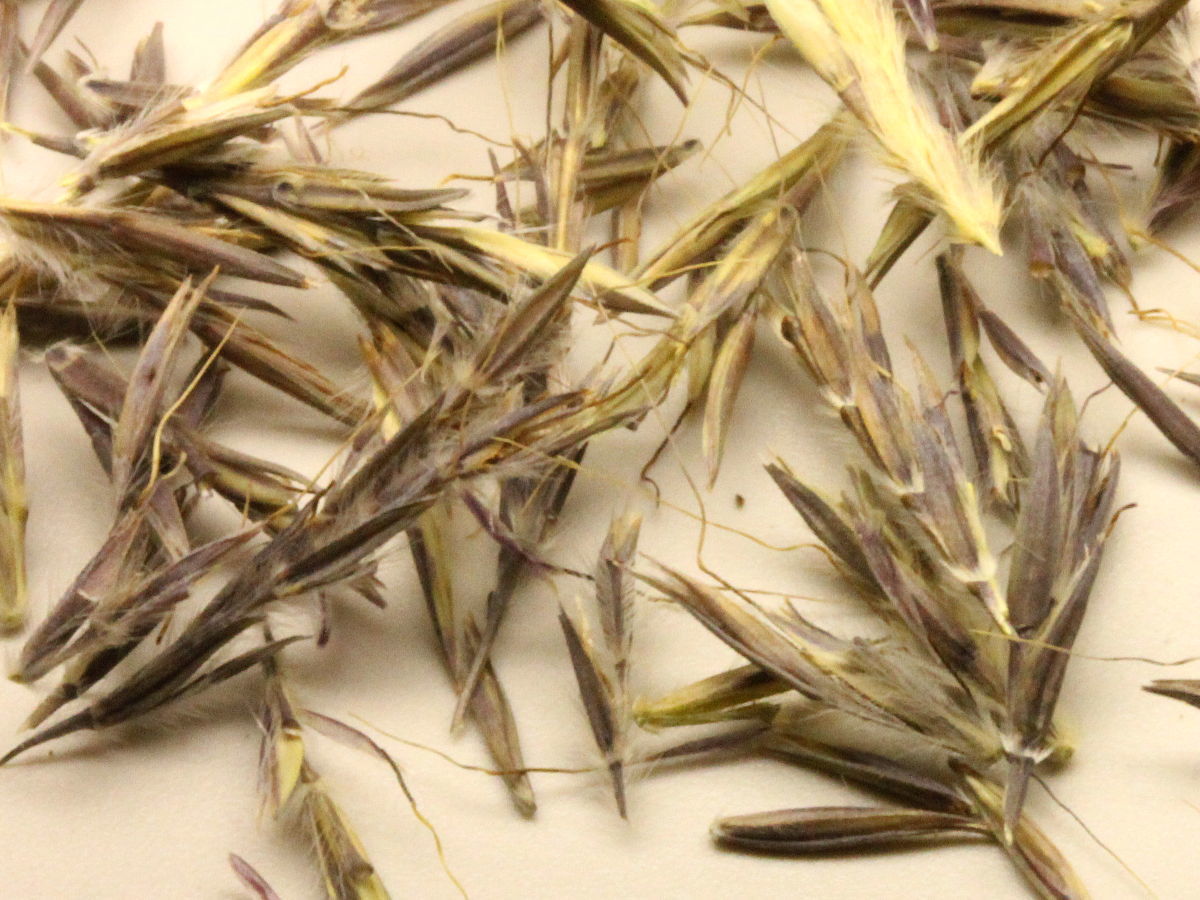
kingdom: Plantae
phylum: Tracheophyta
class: Liliopsida
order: Poales
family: Poaceae
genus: Andropogon
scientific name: Andropogon gerardi
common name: Big bluestem
